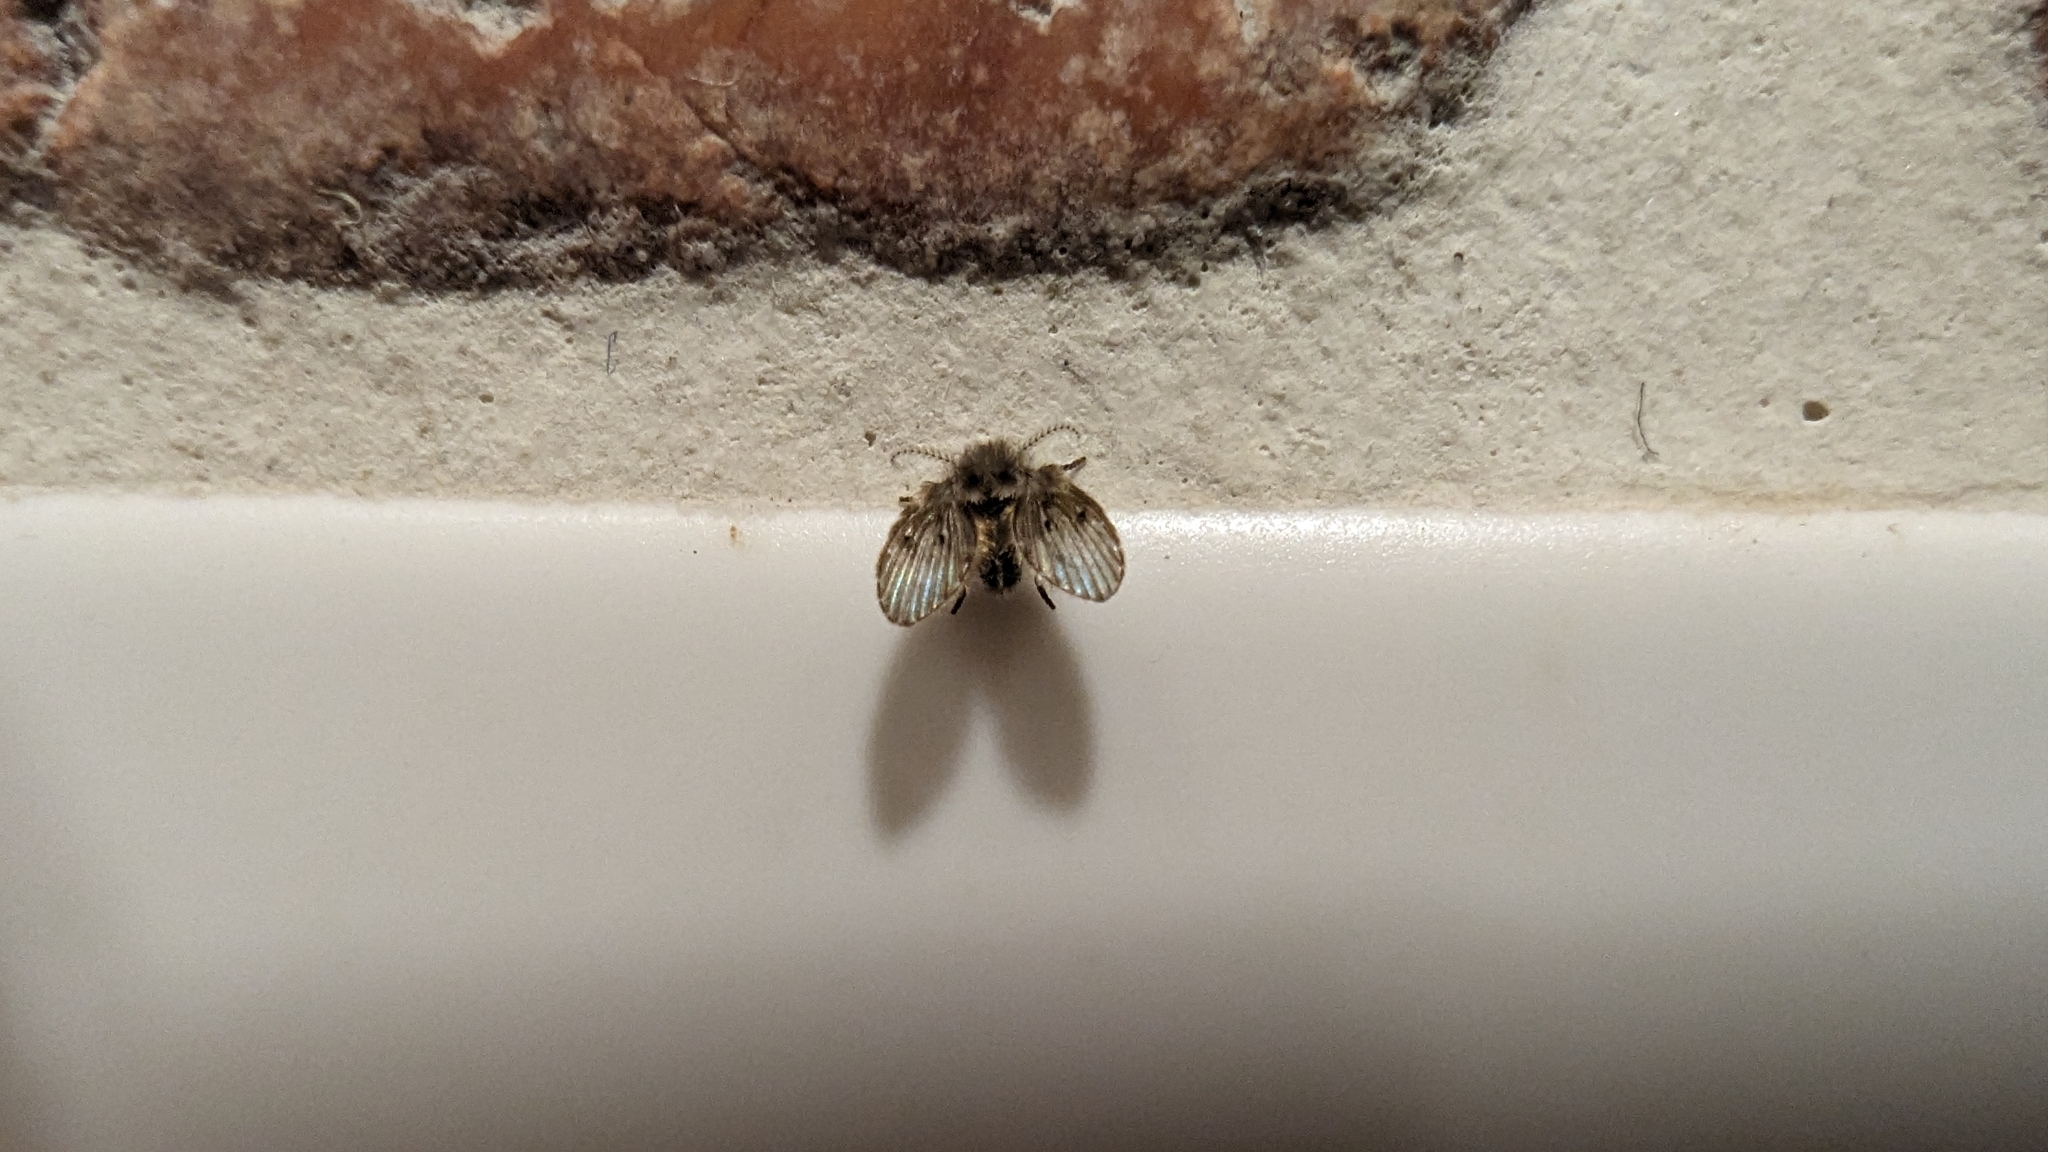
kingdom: Animalia
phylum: Arthropoda
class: Insecta
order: Diptera
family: Psychodidae
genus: Clogmia
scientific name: Clogmia albipunctatus
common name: White-spotted moth fly
